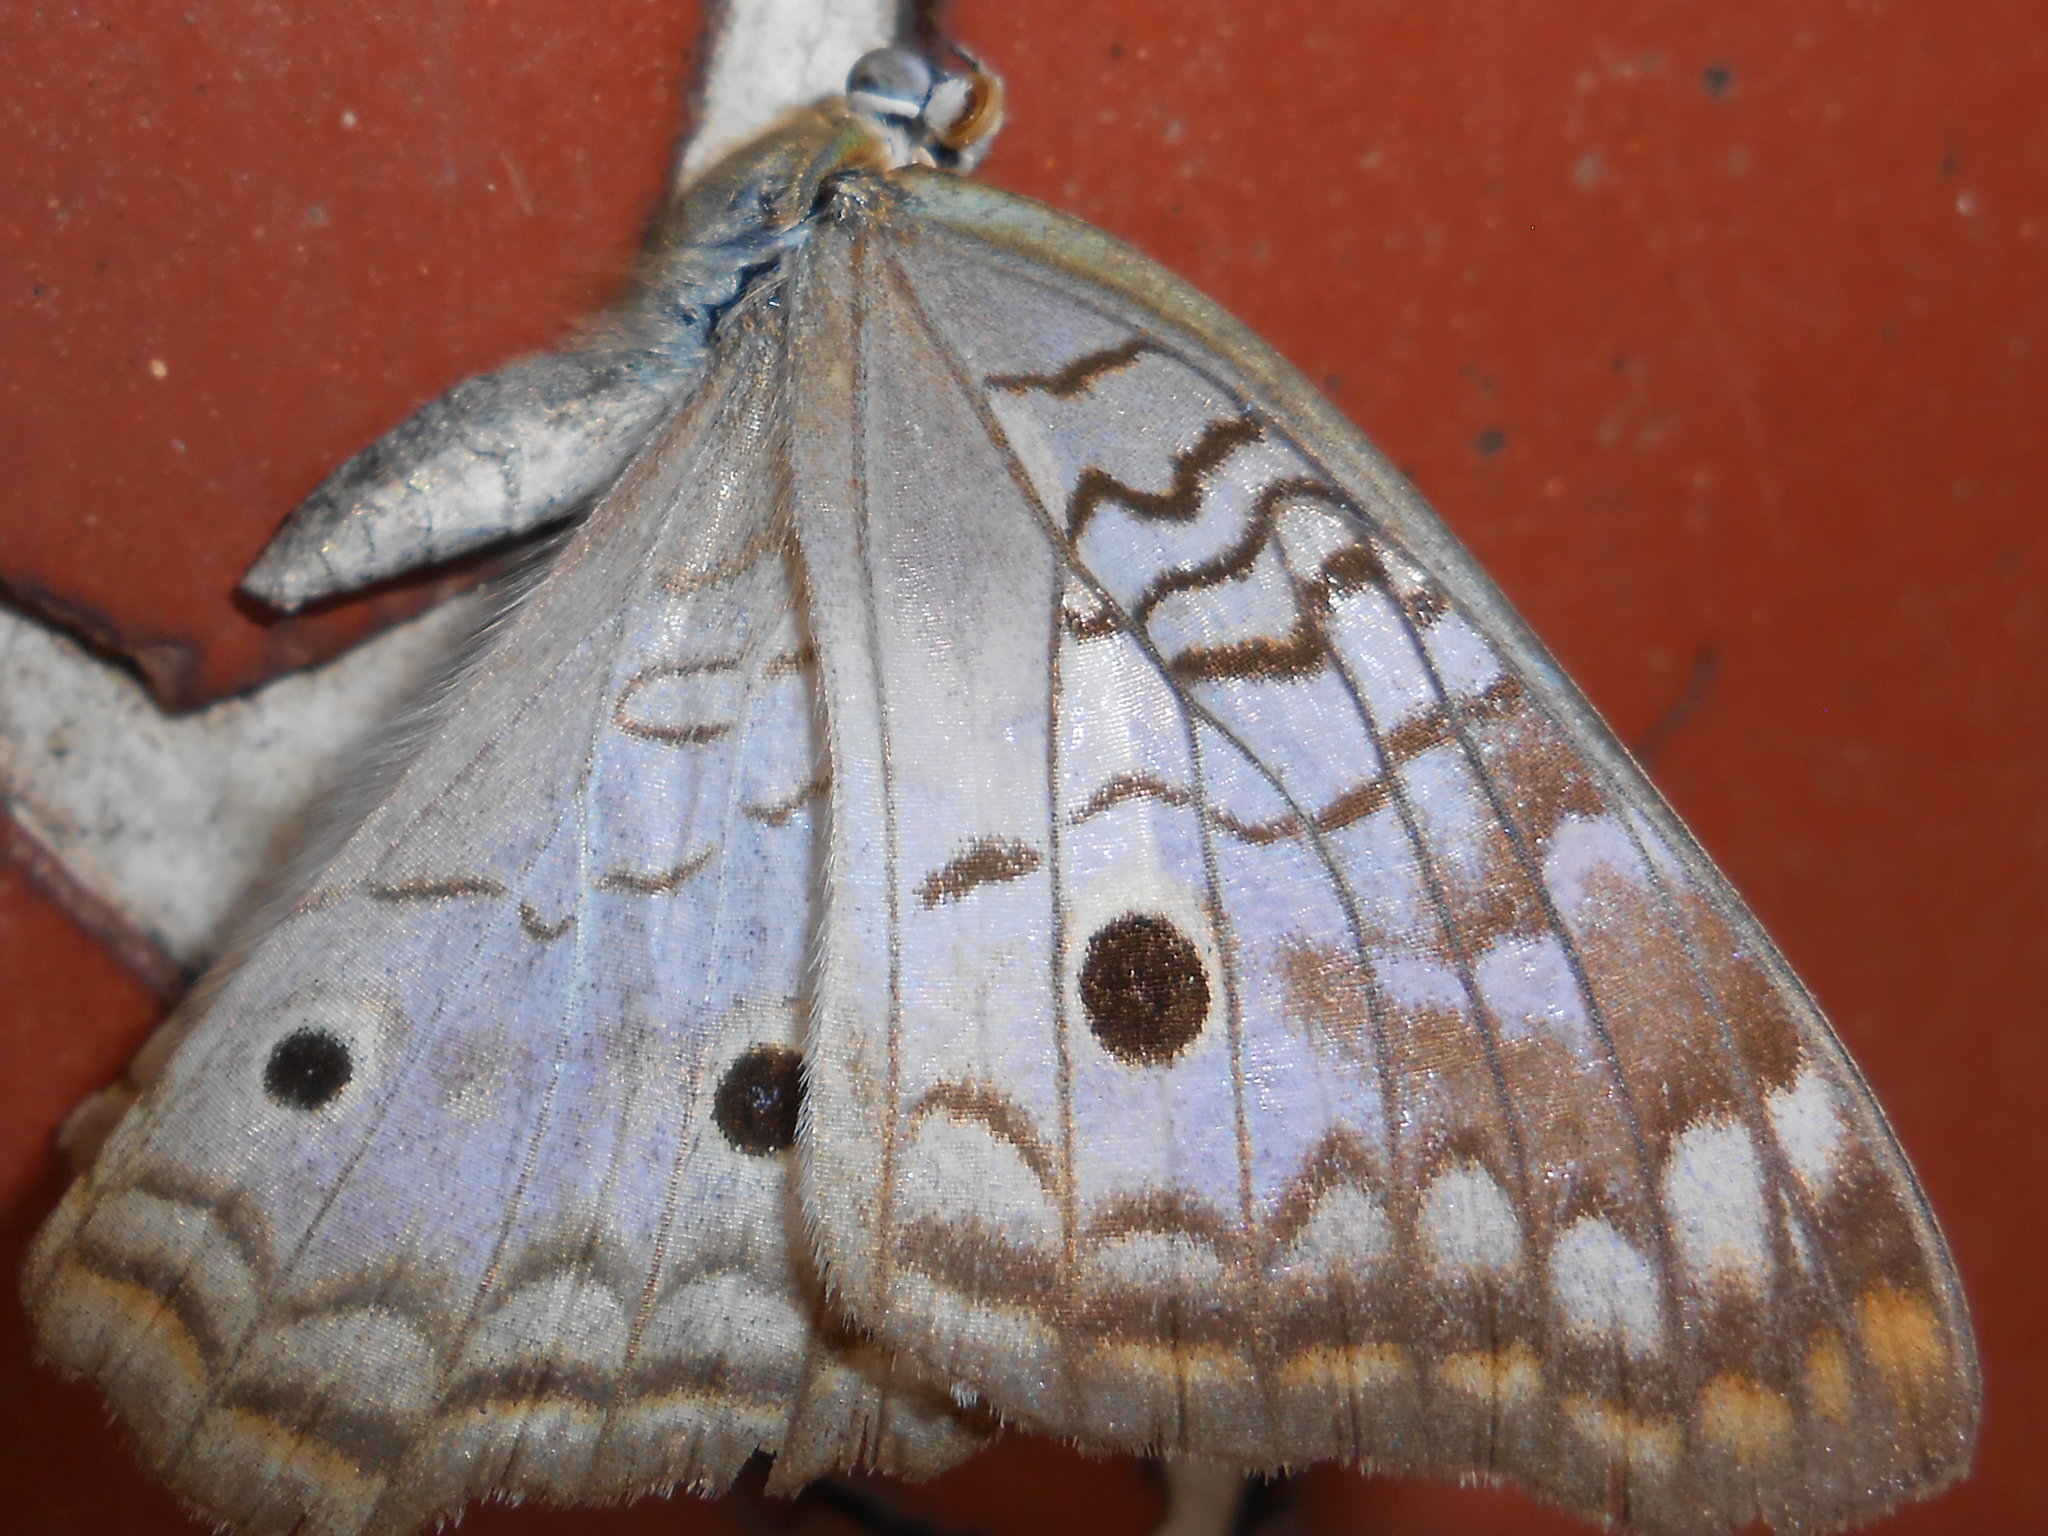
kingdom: Animalia
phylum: Arthropoda
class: Insecta
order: Lepidoptera
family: Nymphalidae
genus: Anartia
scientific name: Anartia jatrophae
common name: White peacock
